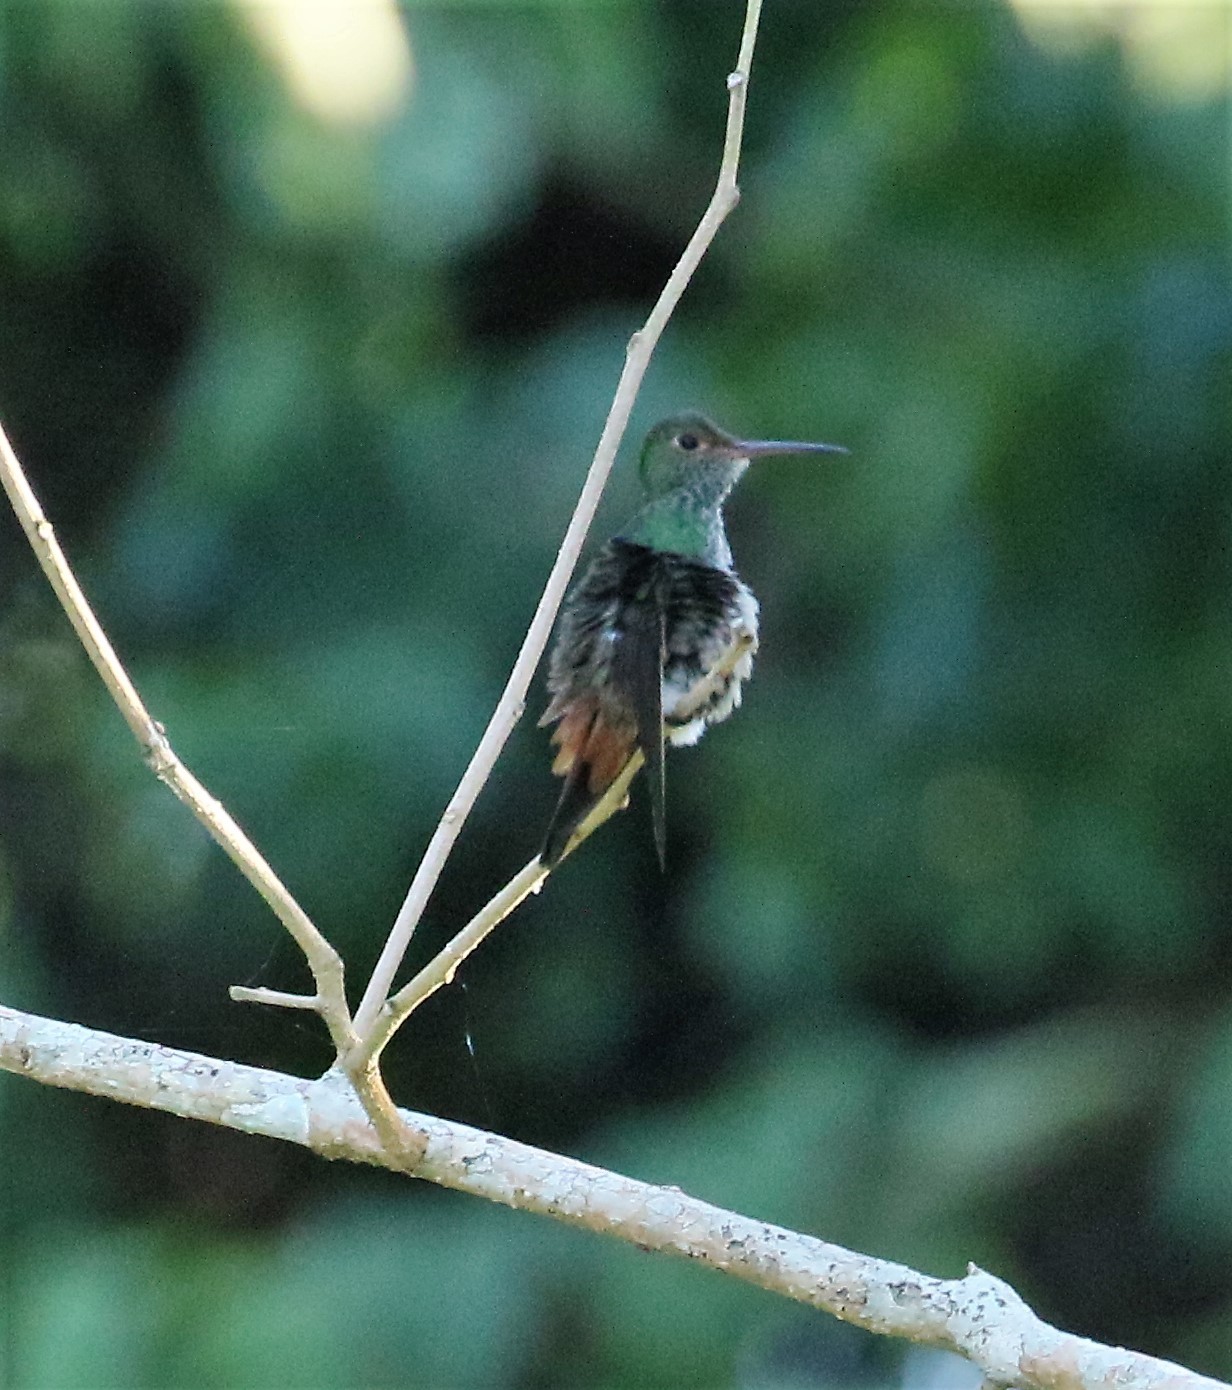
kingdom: Animalia
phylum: Chordata
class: Aves
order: Apodiformes
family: Trochilidae
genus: Amazilia
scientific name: Amazilia tzacatl
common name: Rufous-tailed hummingbird
